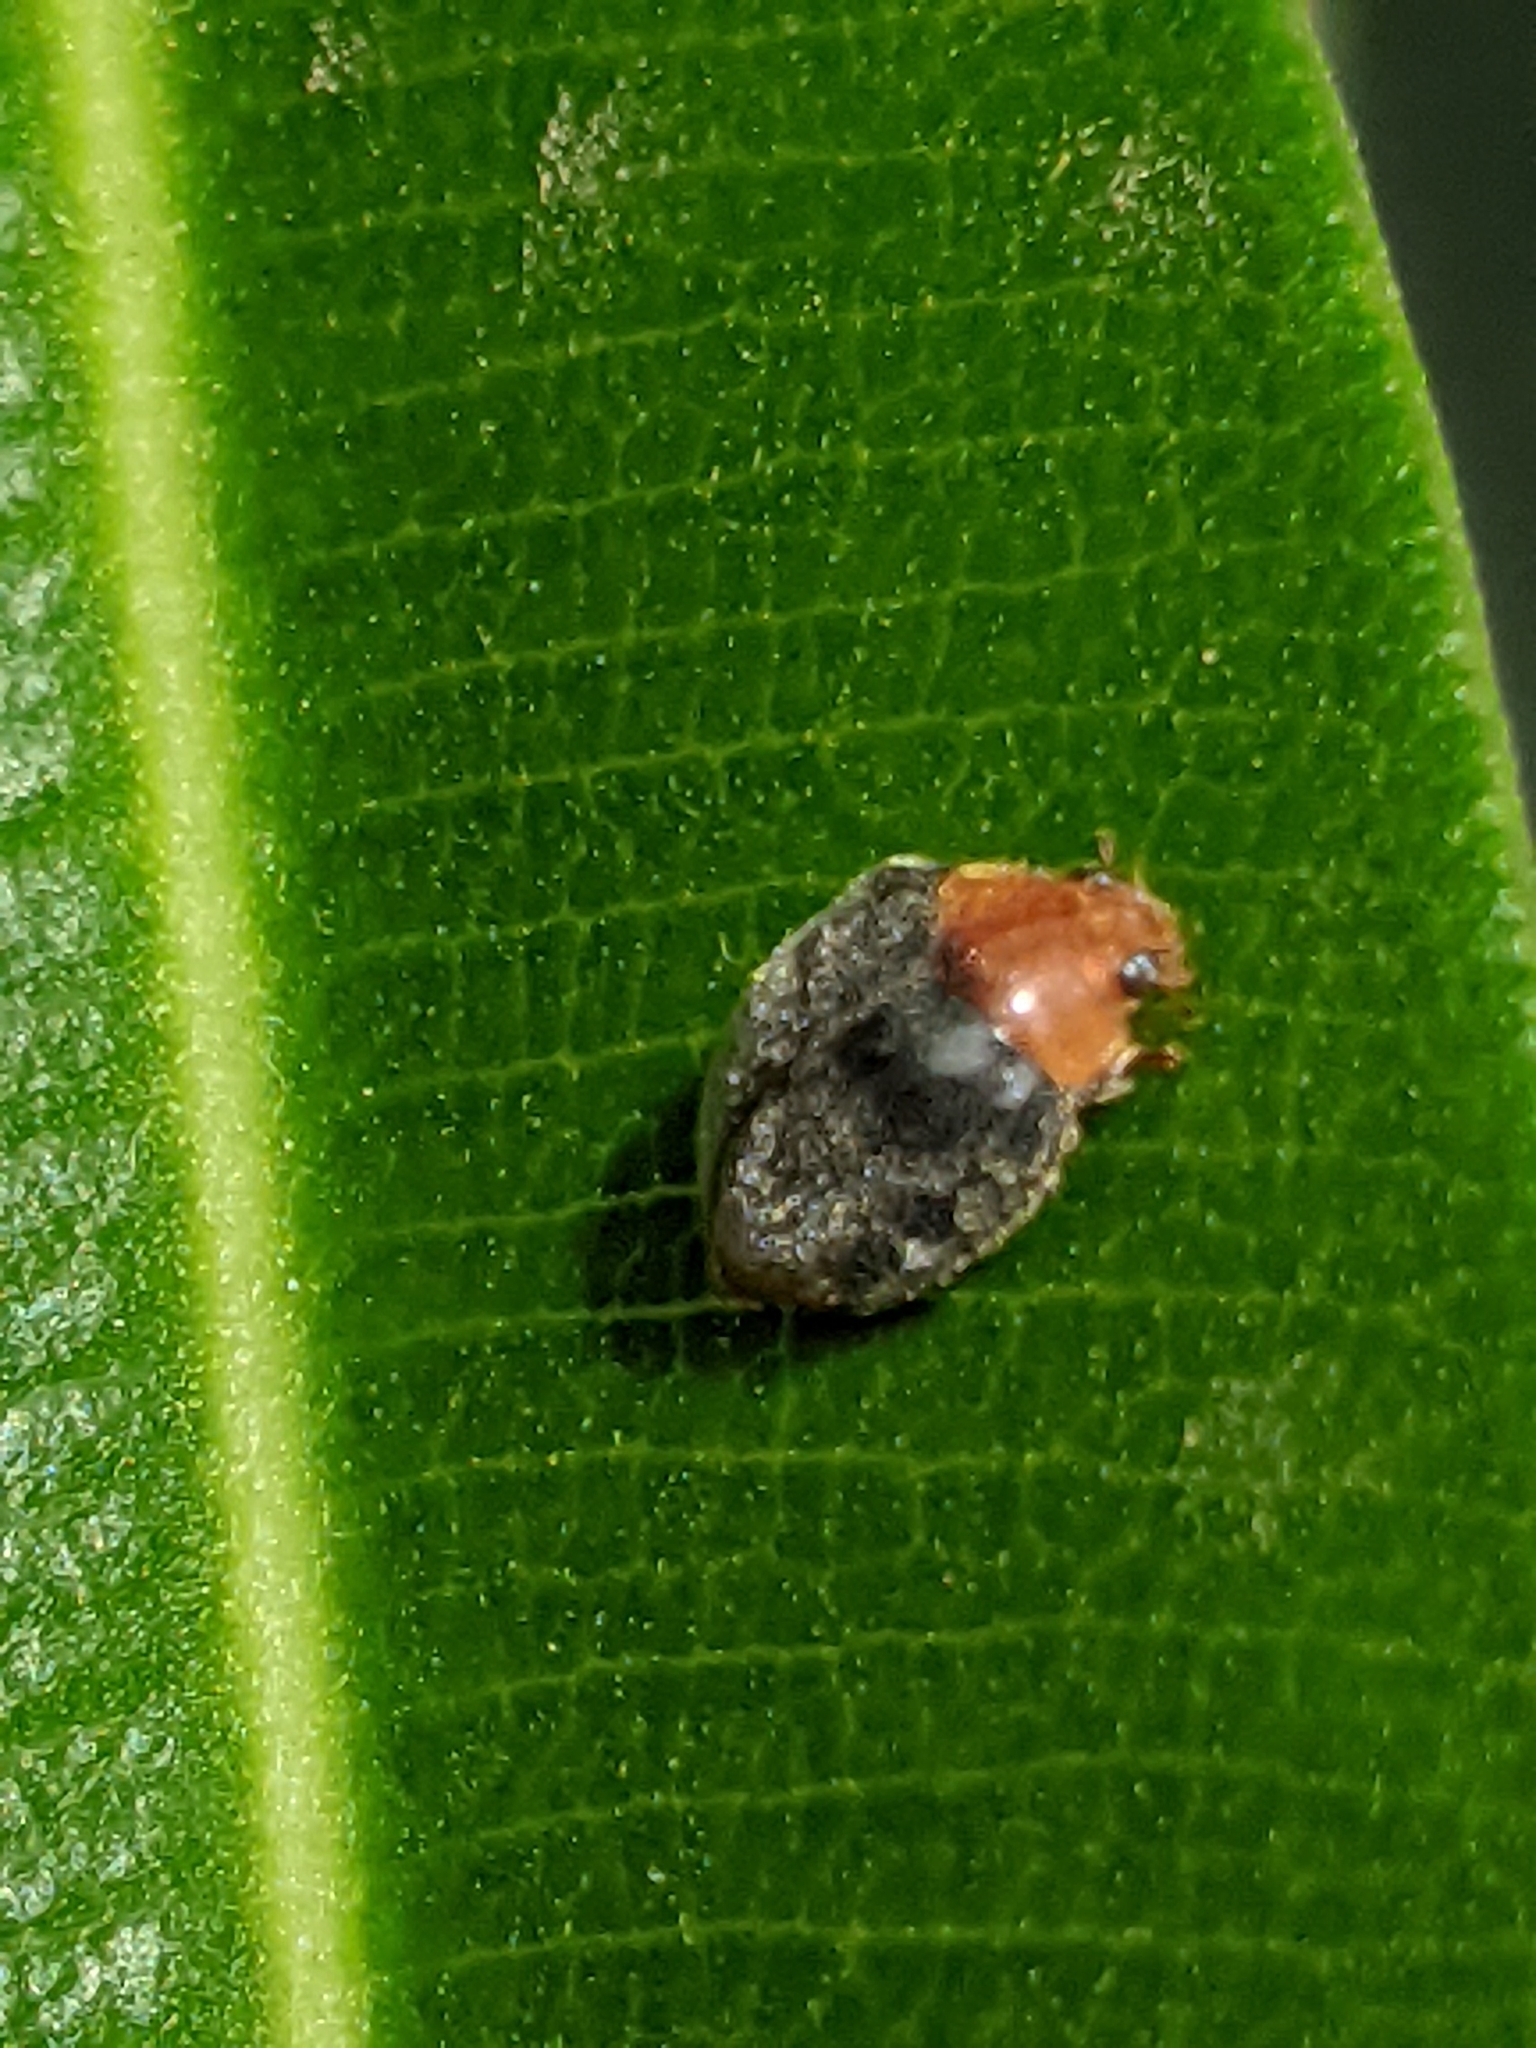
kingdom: Animalia
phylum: Arthropoda
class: Insecta
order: Coleoptera
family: Coccinellidae
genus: Cryptolaemus
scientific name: Cryptolaemus montrouzieri
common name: Mealybug destroyer
